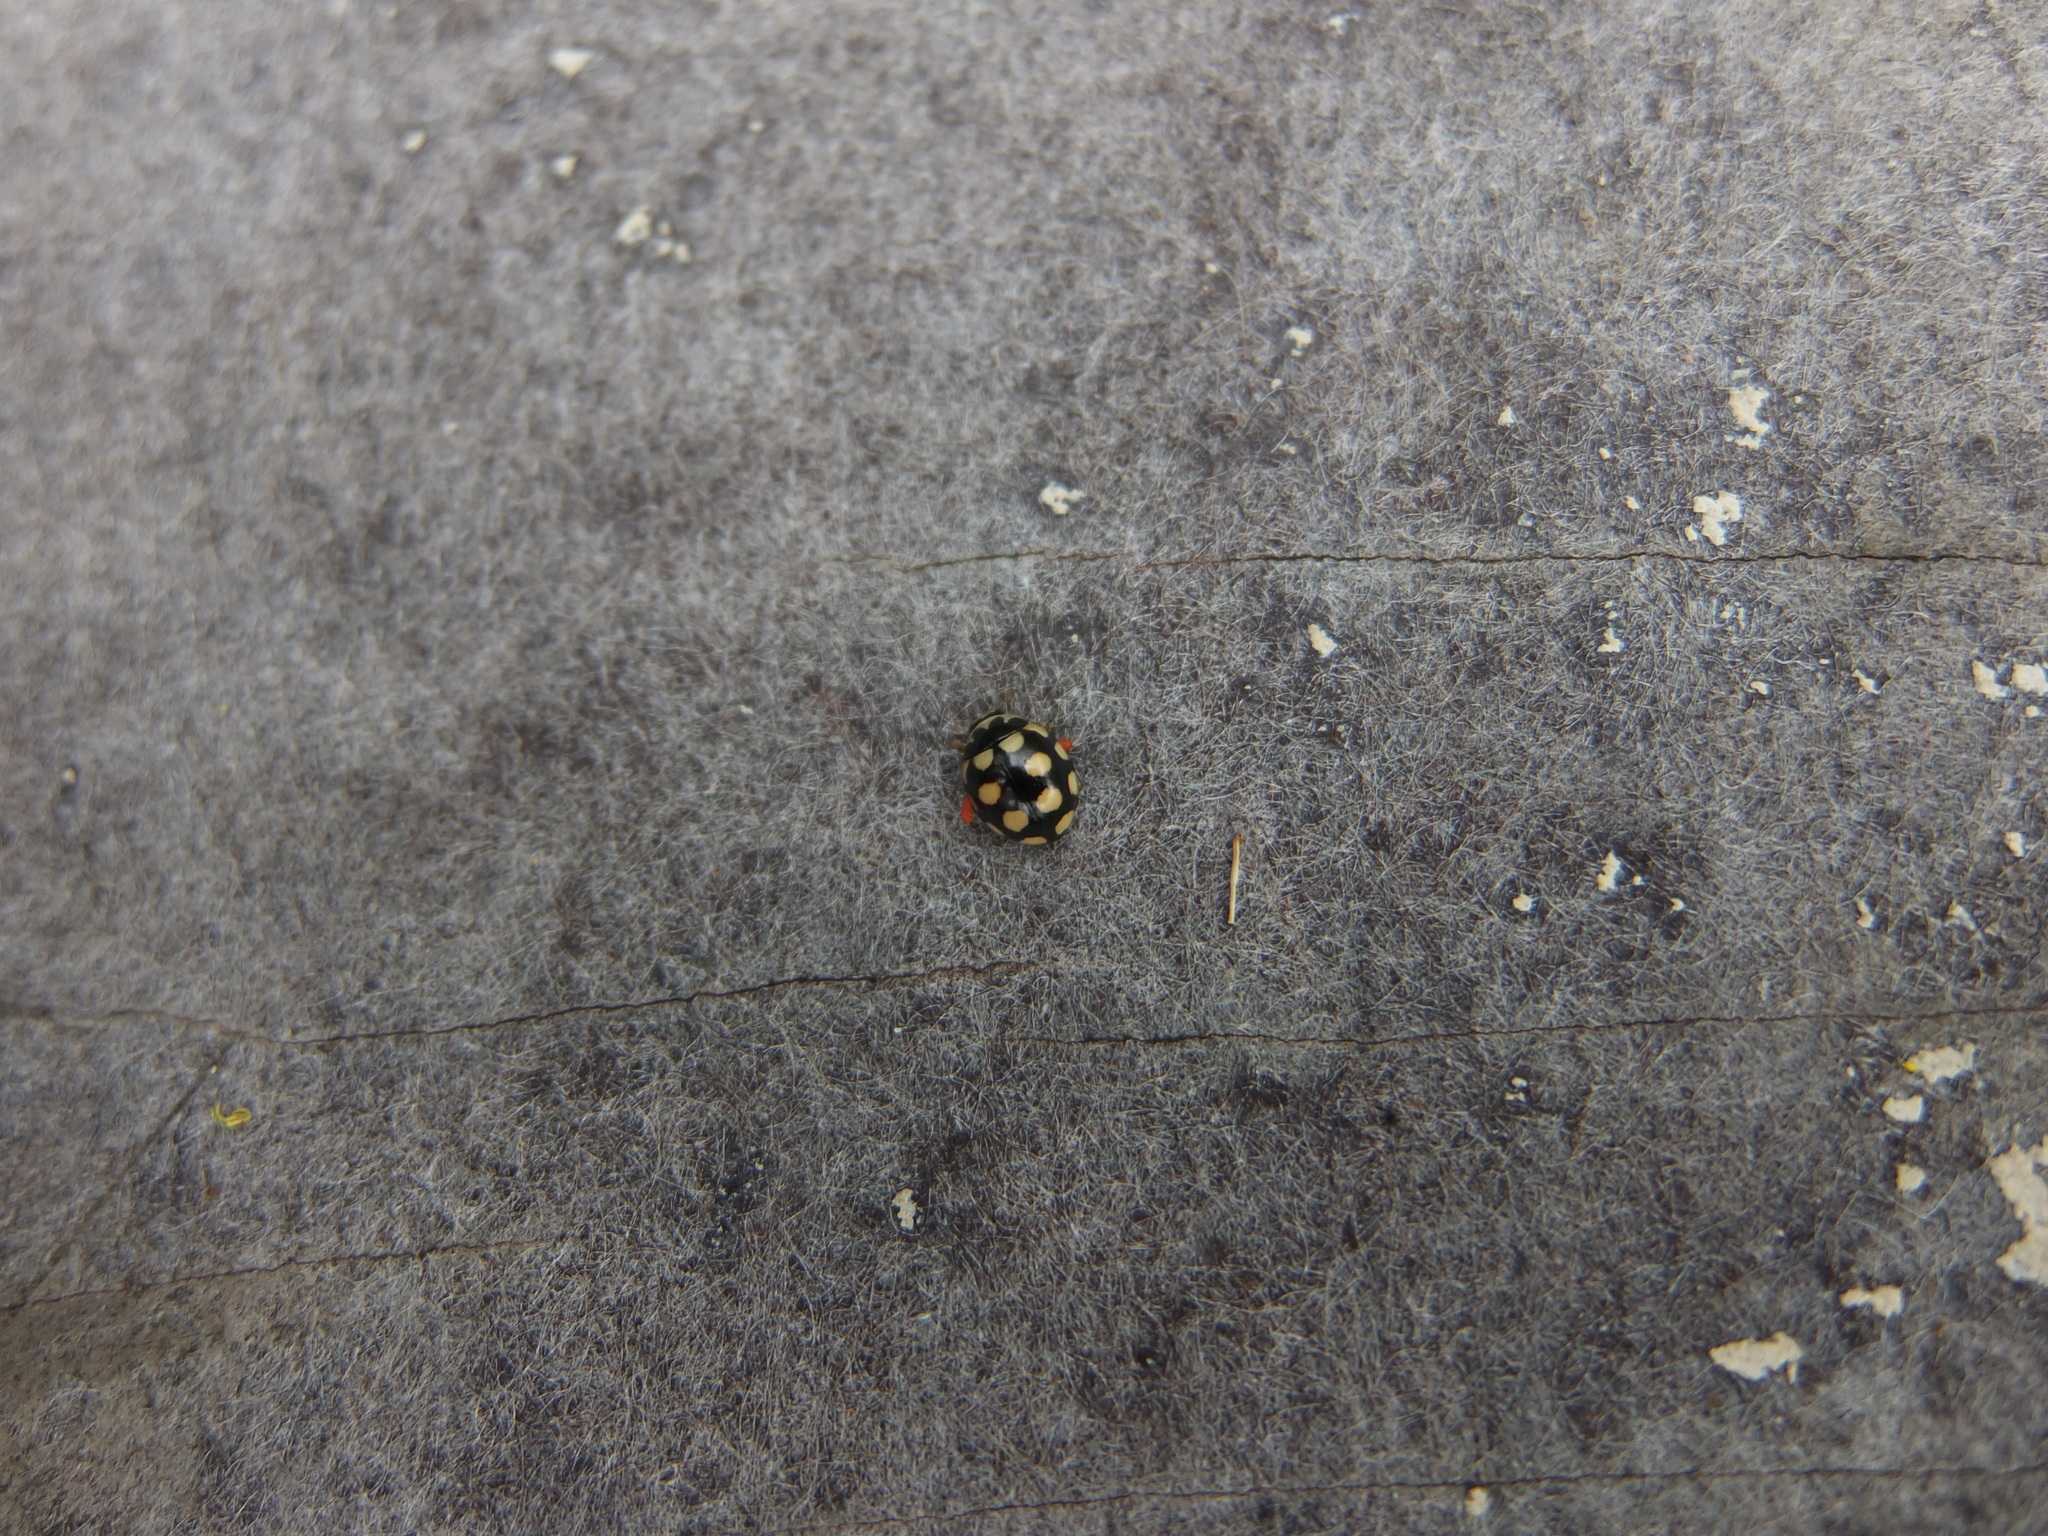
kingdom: Animalia
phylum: Arthropoda
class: Insecta
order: Coleoptera
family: Coccinellidae
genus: Coccinula
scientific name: Coccinula quatuordecimpustulata
